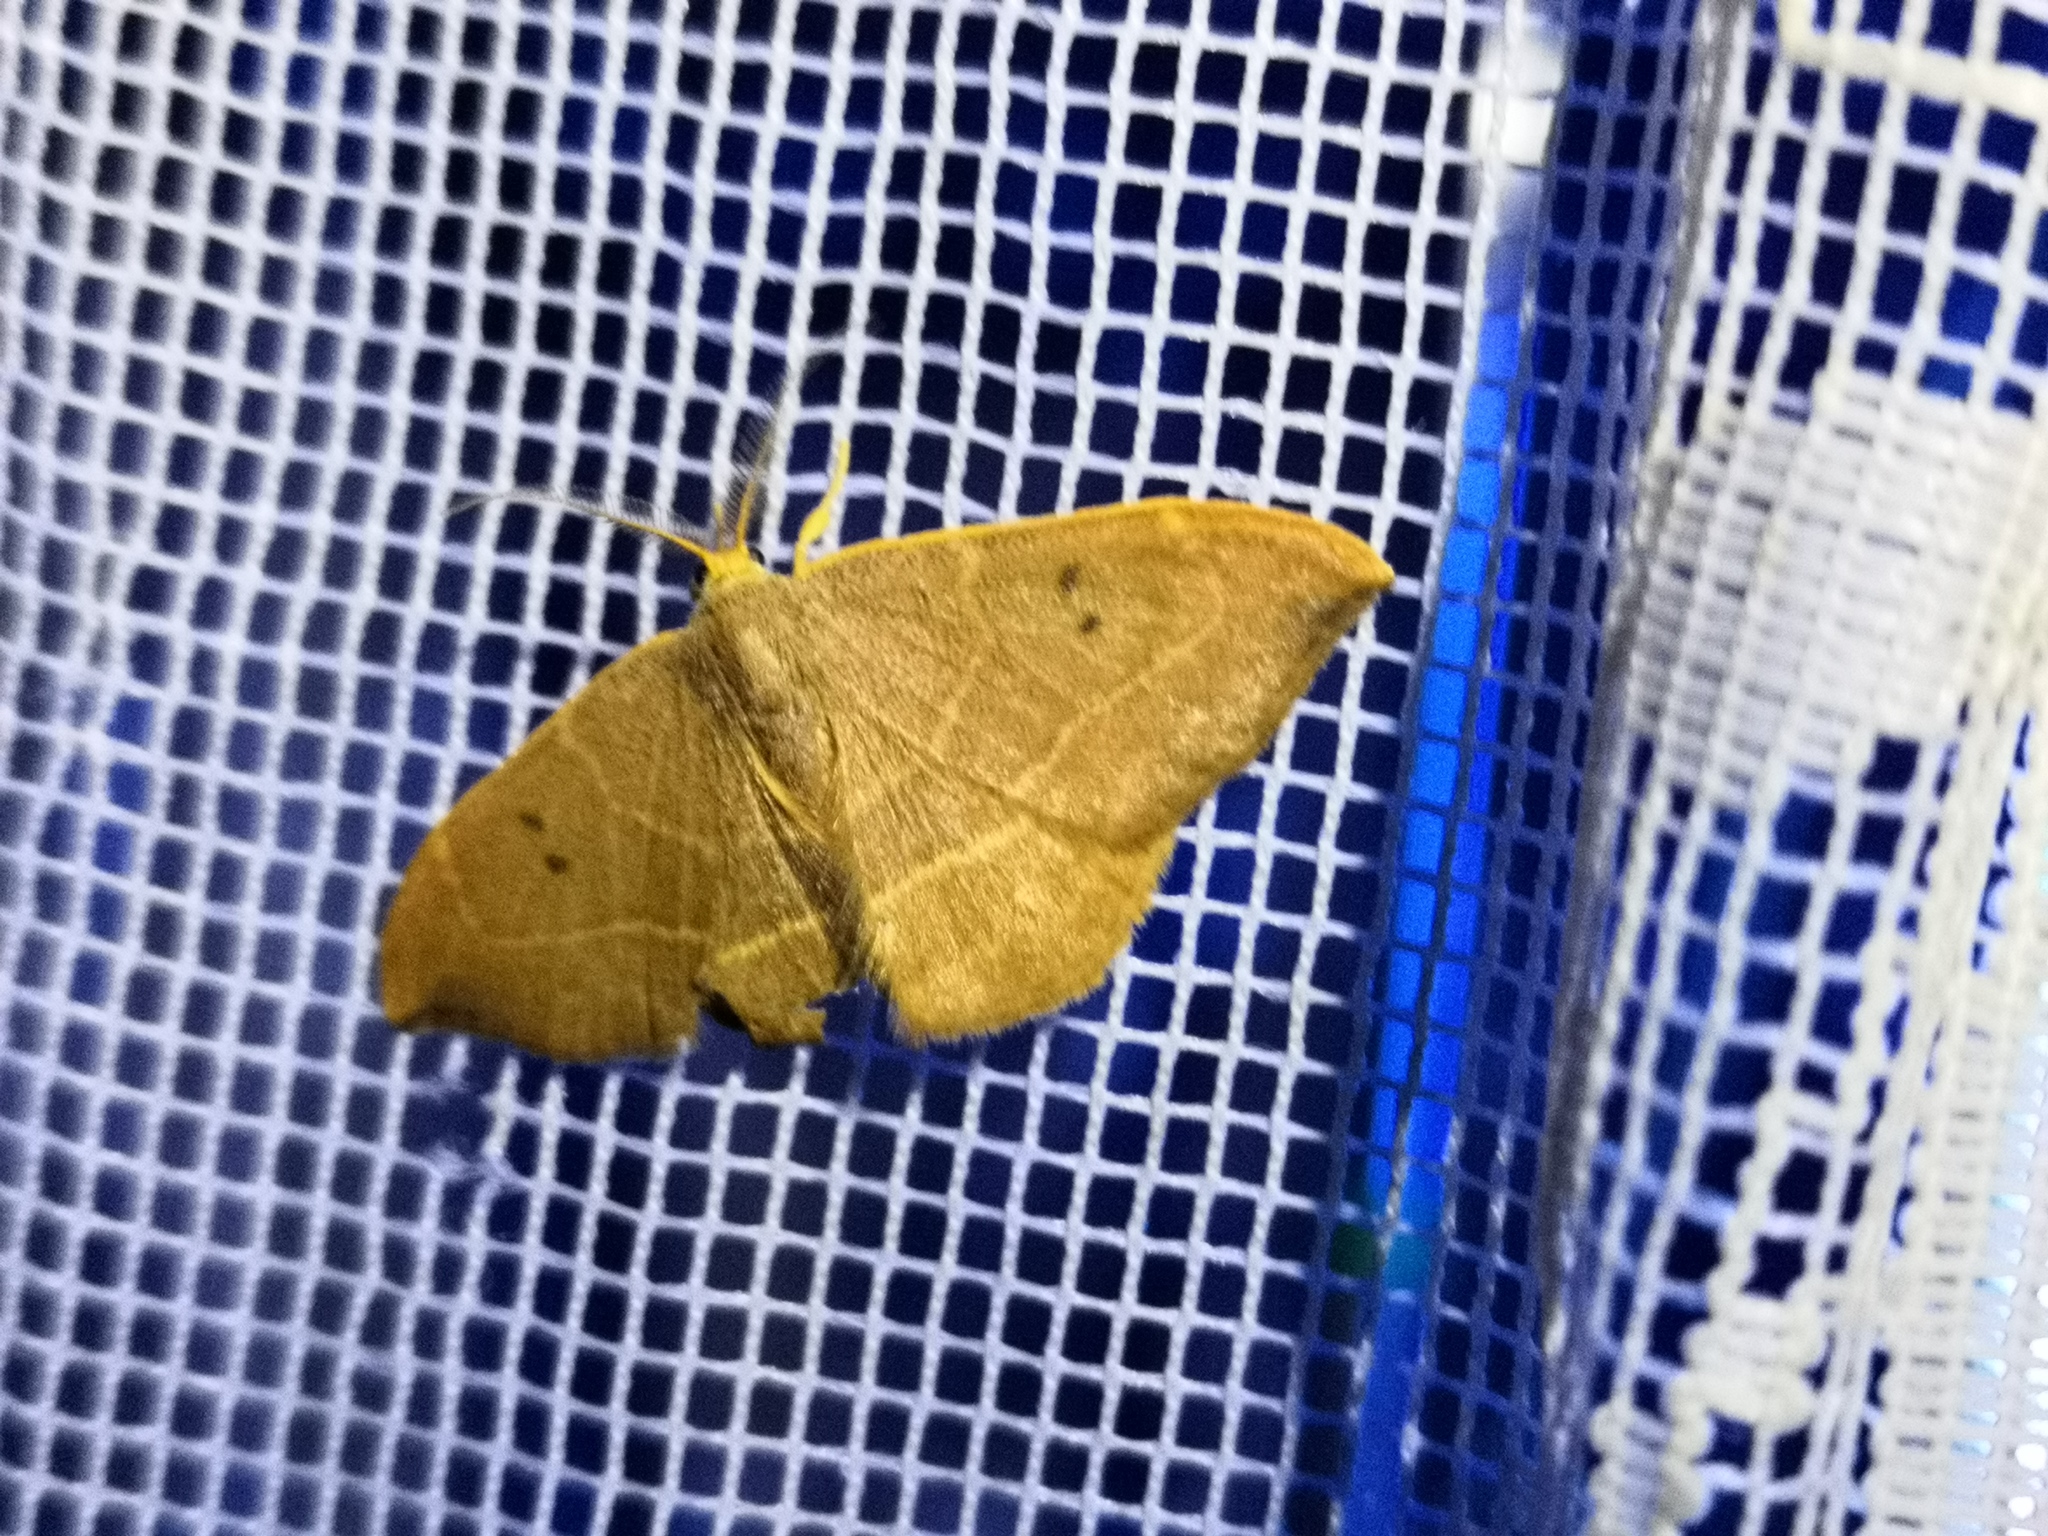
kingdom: Animalia
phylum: Arthropoda
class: Insecta
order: Lepidoptera
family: Drepanidae
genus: Watsonalla
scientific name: Watsonalla binaria
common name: Oak hook-tip
